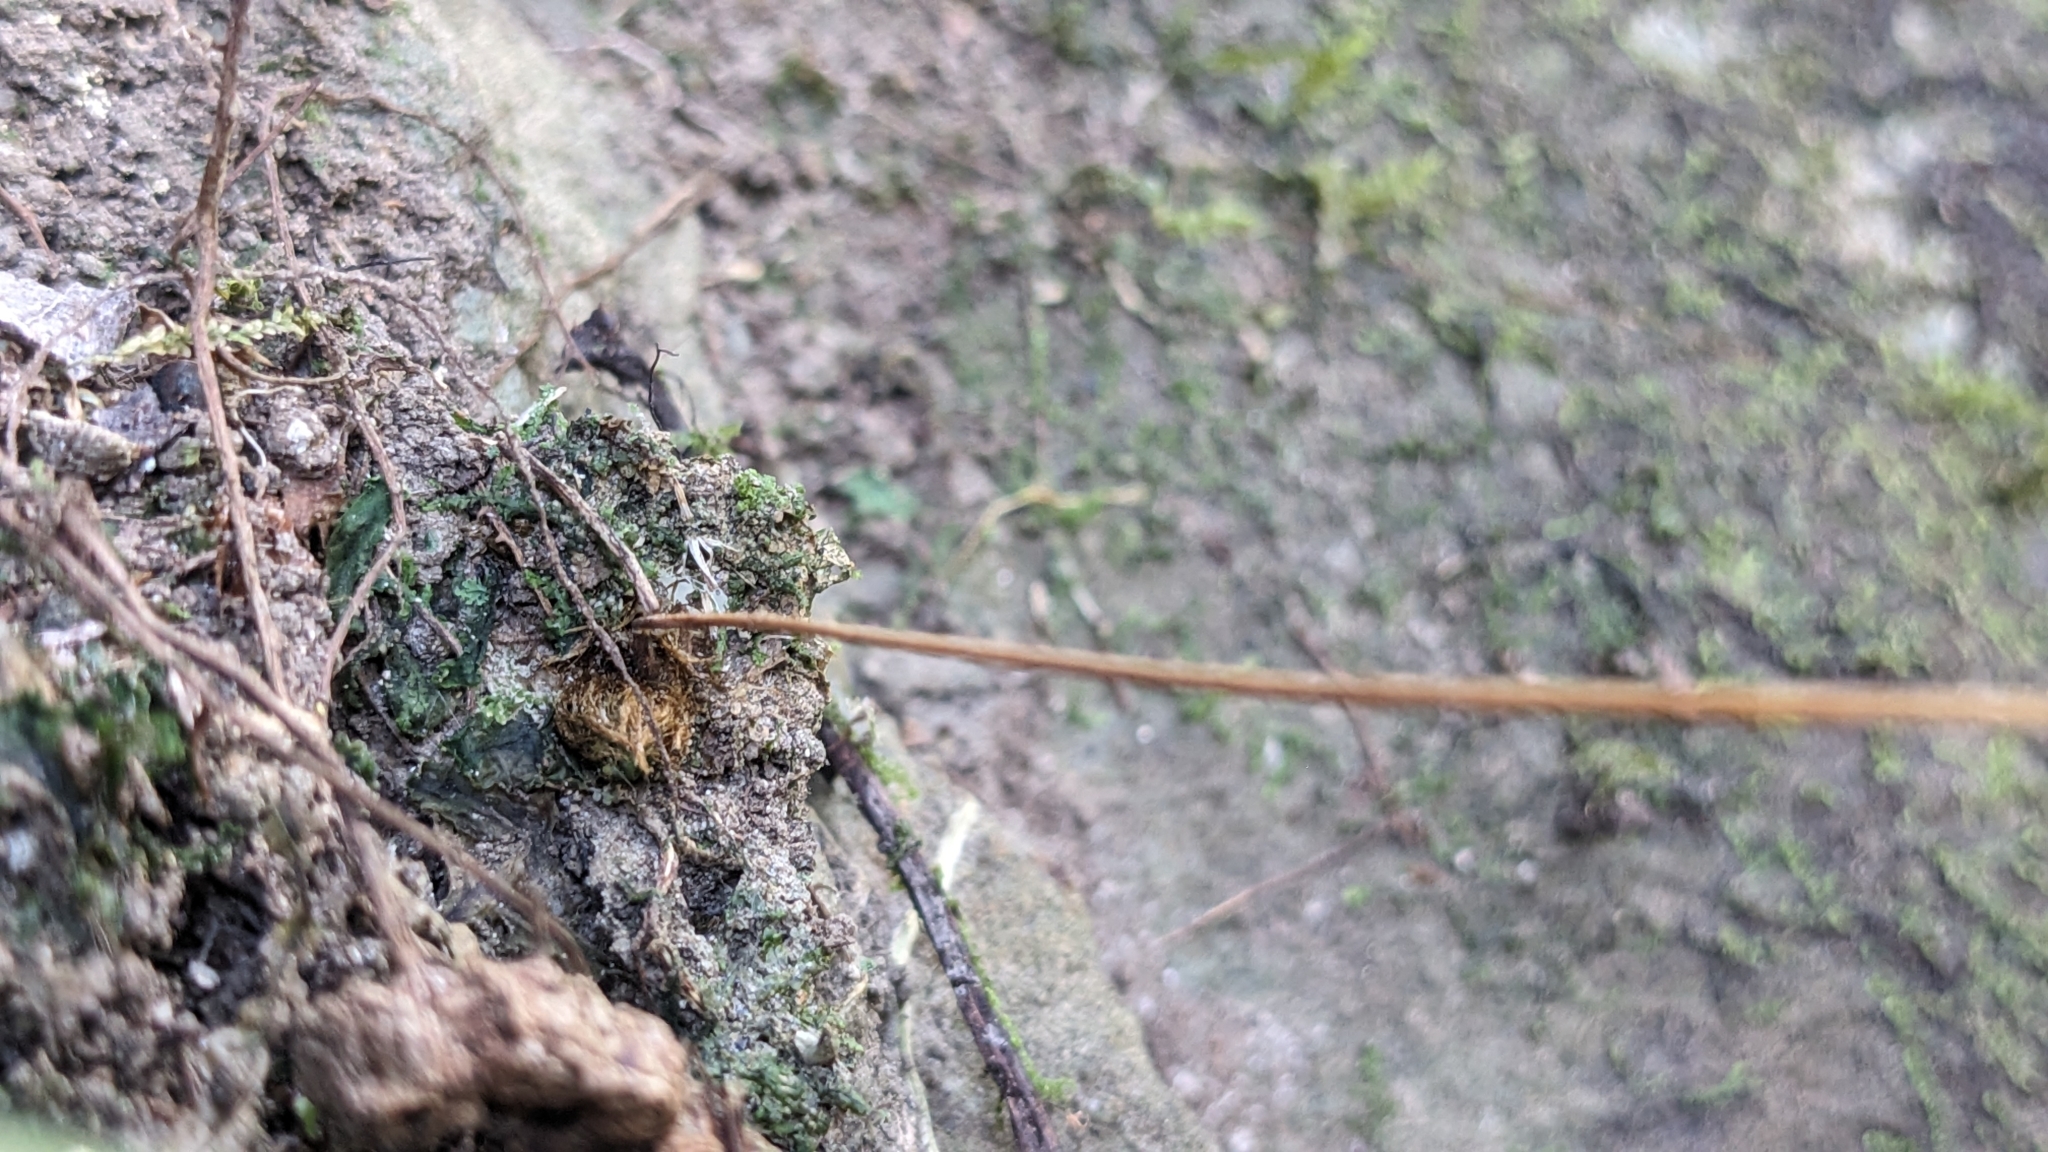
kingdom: Plantae
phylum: Tracheophyta
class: Magnoliopsida
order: Lamiales
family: Gesneriaceae
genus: Conandron
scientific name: Conandron ramondioides
